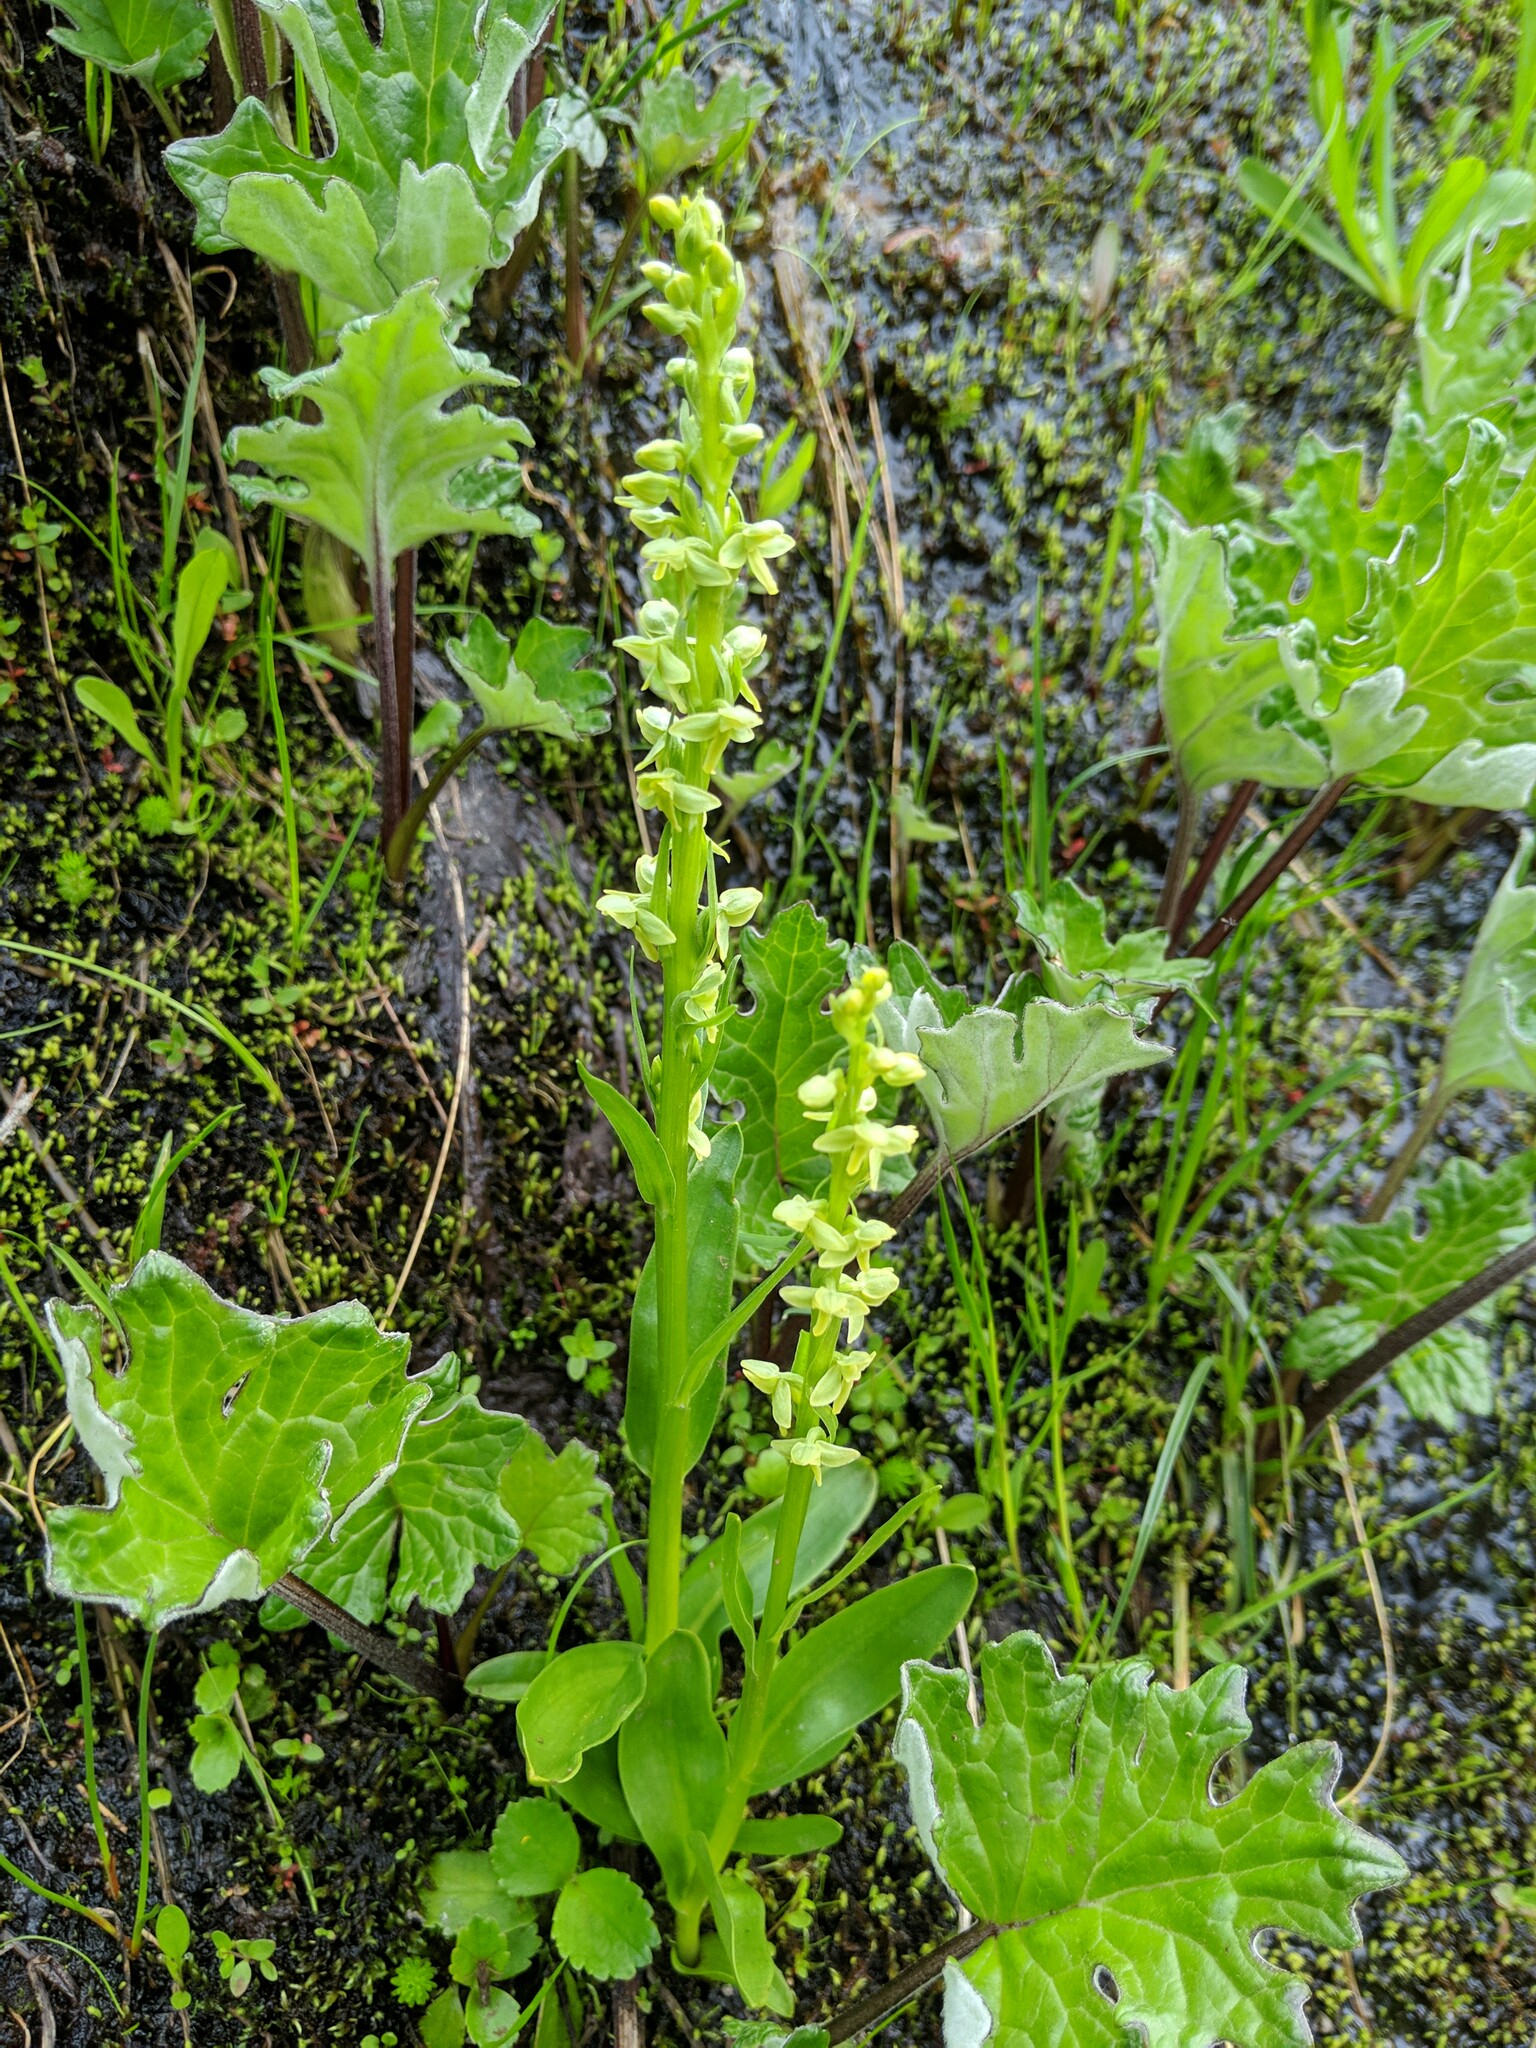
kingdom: Plantae
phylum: Tracheophyta
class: Liliopsida
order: Asparagales
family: Orchidaceae
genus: Platanthera
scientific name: Platanthera stricta
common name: Slender bog orchid
